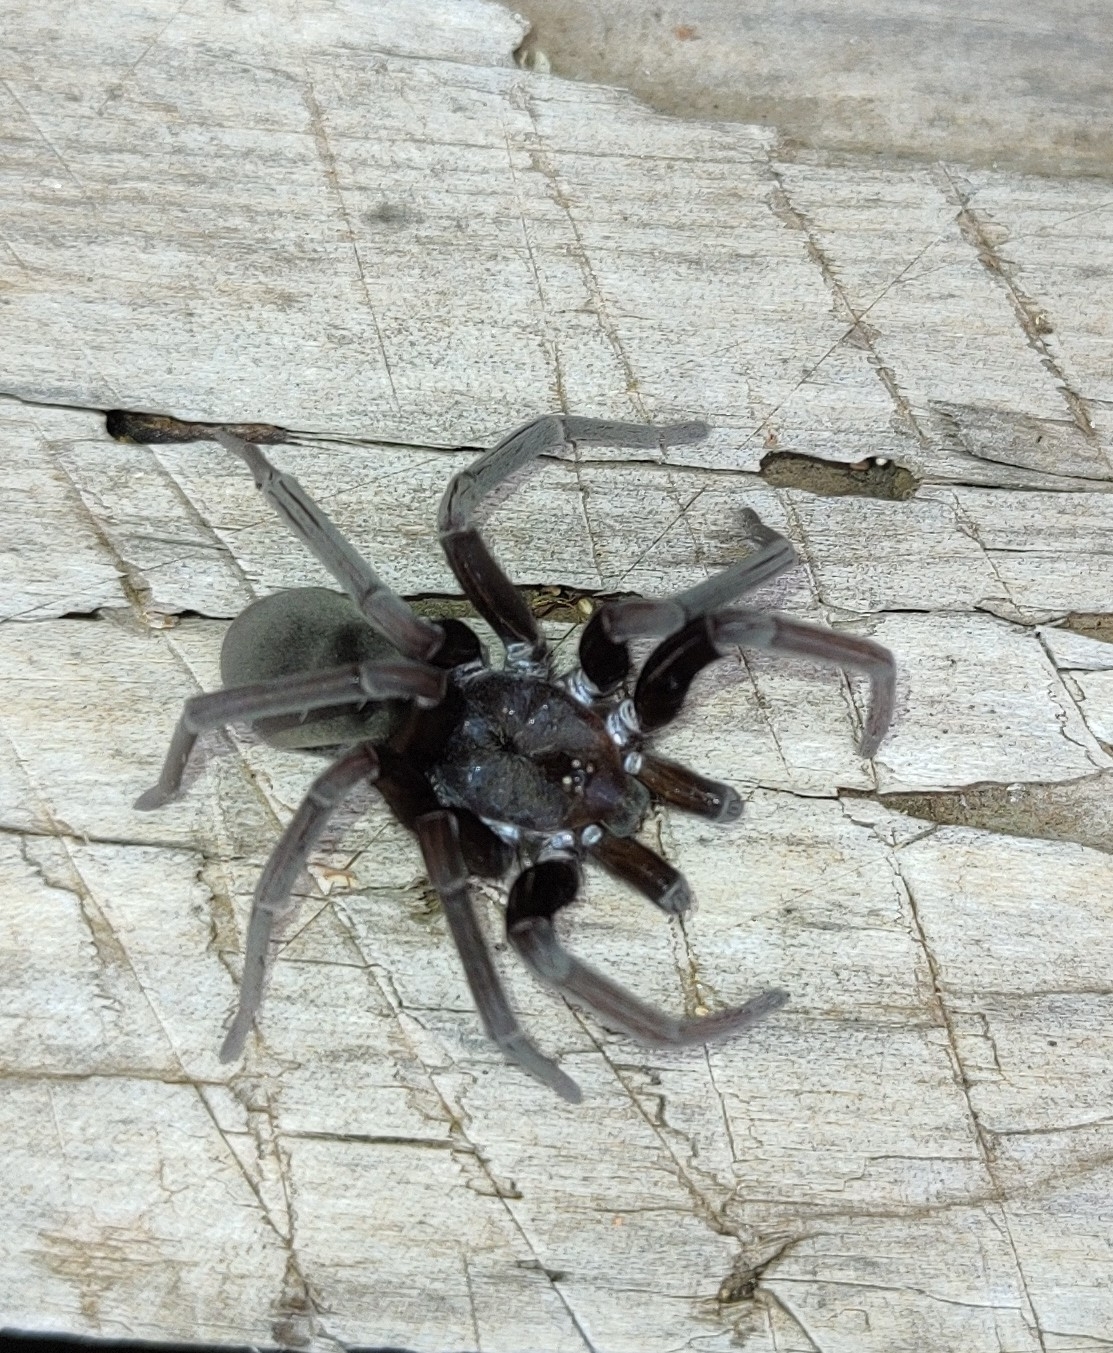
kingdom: Animalia
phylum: Arthropoda
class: Arachnida
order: Araneae
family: Filistatidae
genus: Kukulcania
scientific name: Kukulcania hibernalis
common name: Crevice weaver
